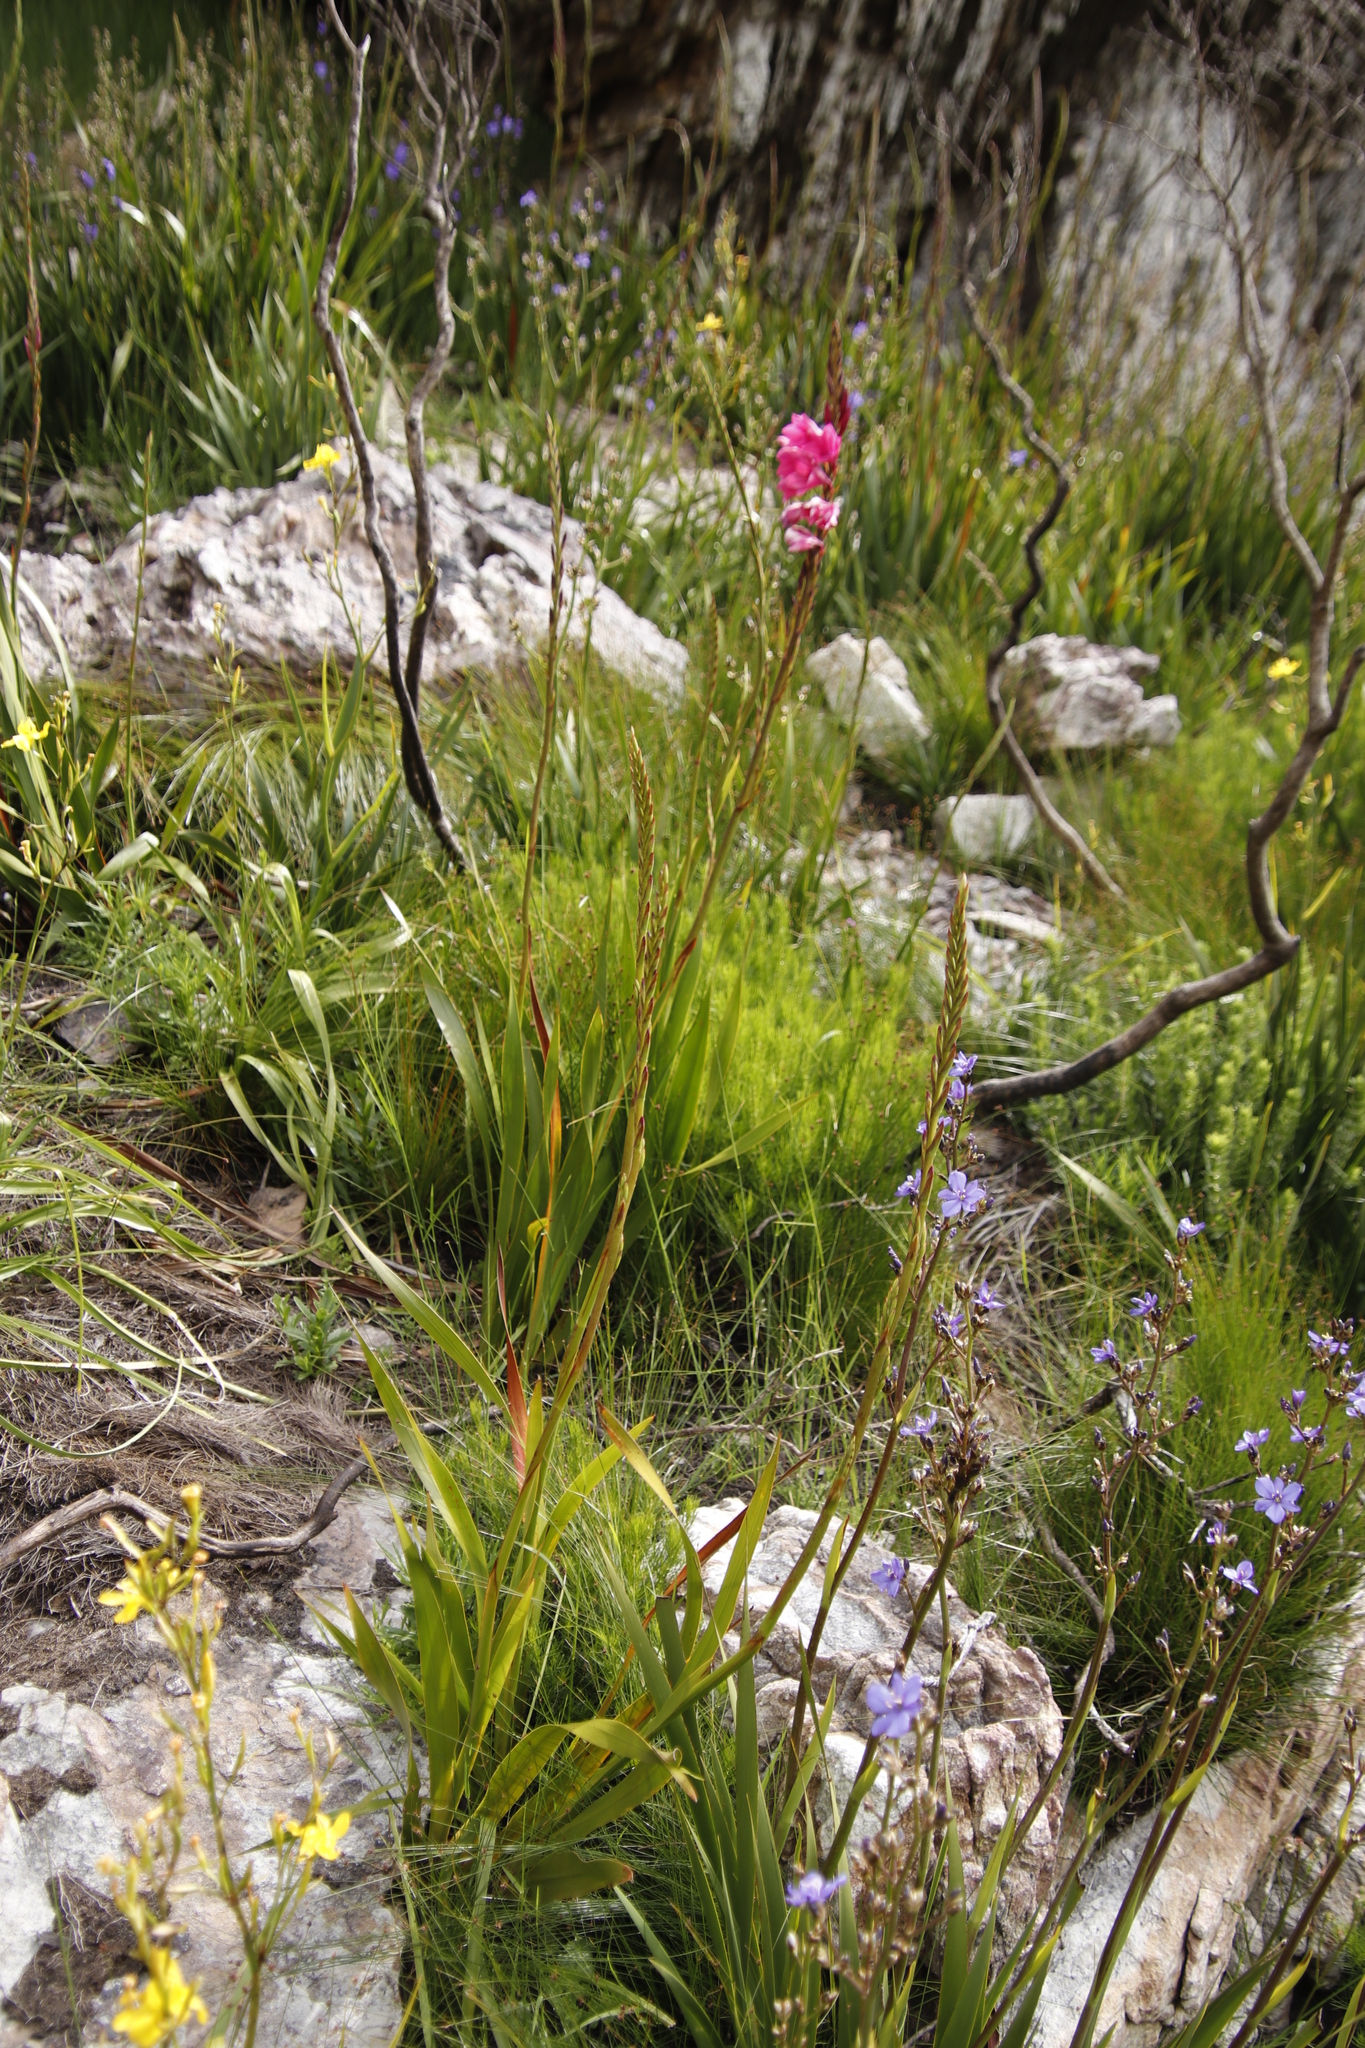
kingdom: Plantae
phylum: Tracheophyta
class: Liliopsida
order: Asparagales
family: Iridaceae
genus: Watsonia
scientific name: Watsonia borbonica
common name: Bugle-lily
